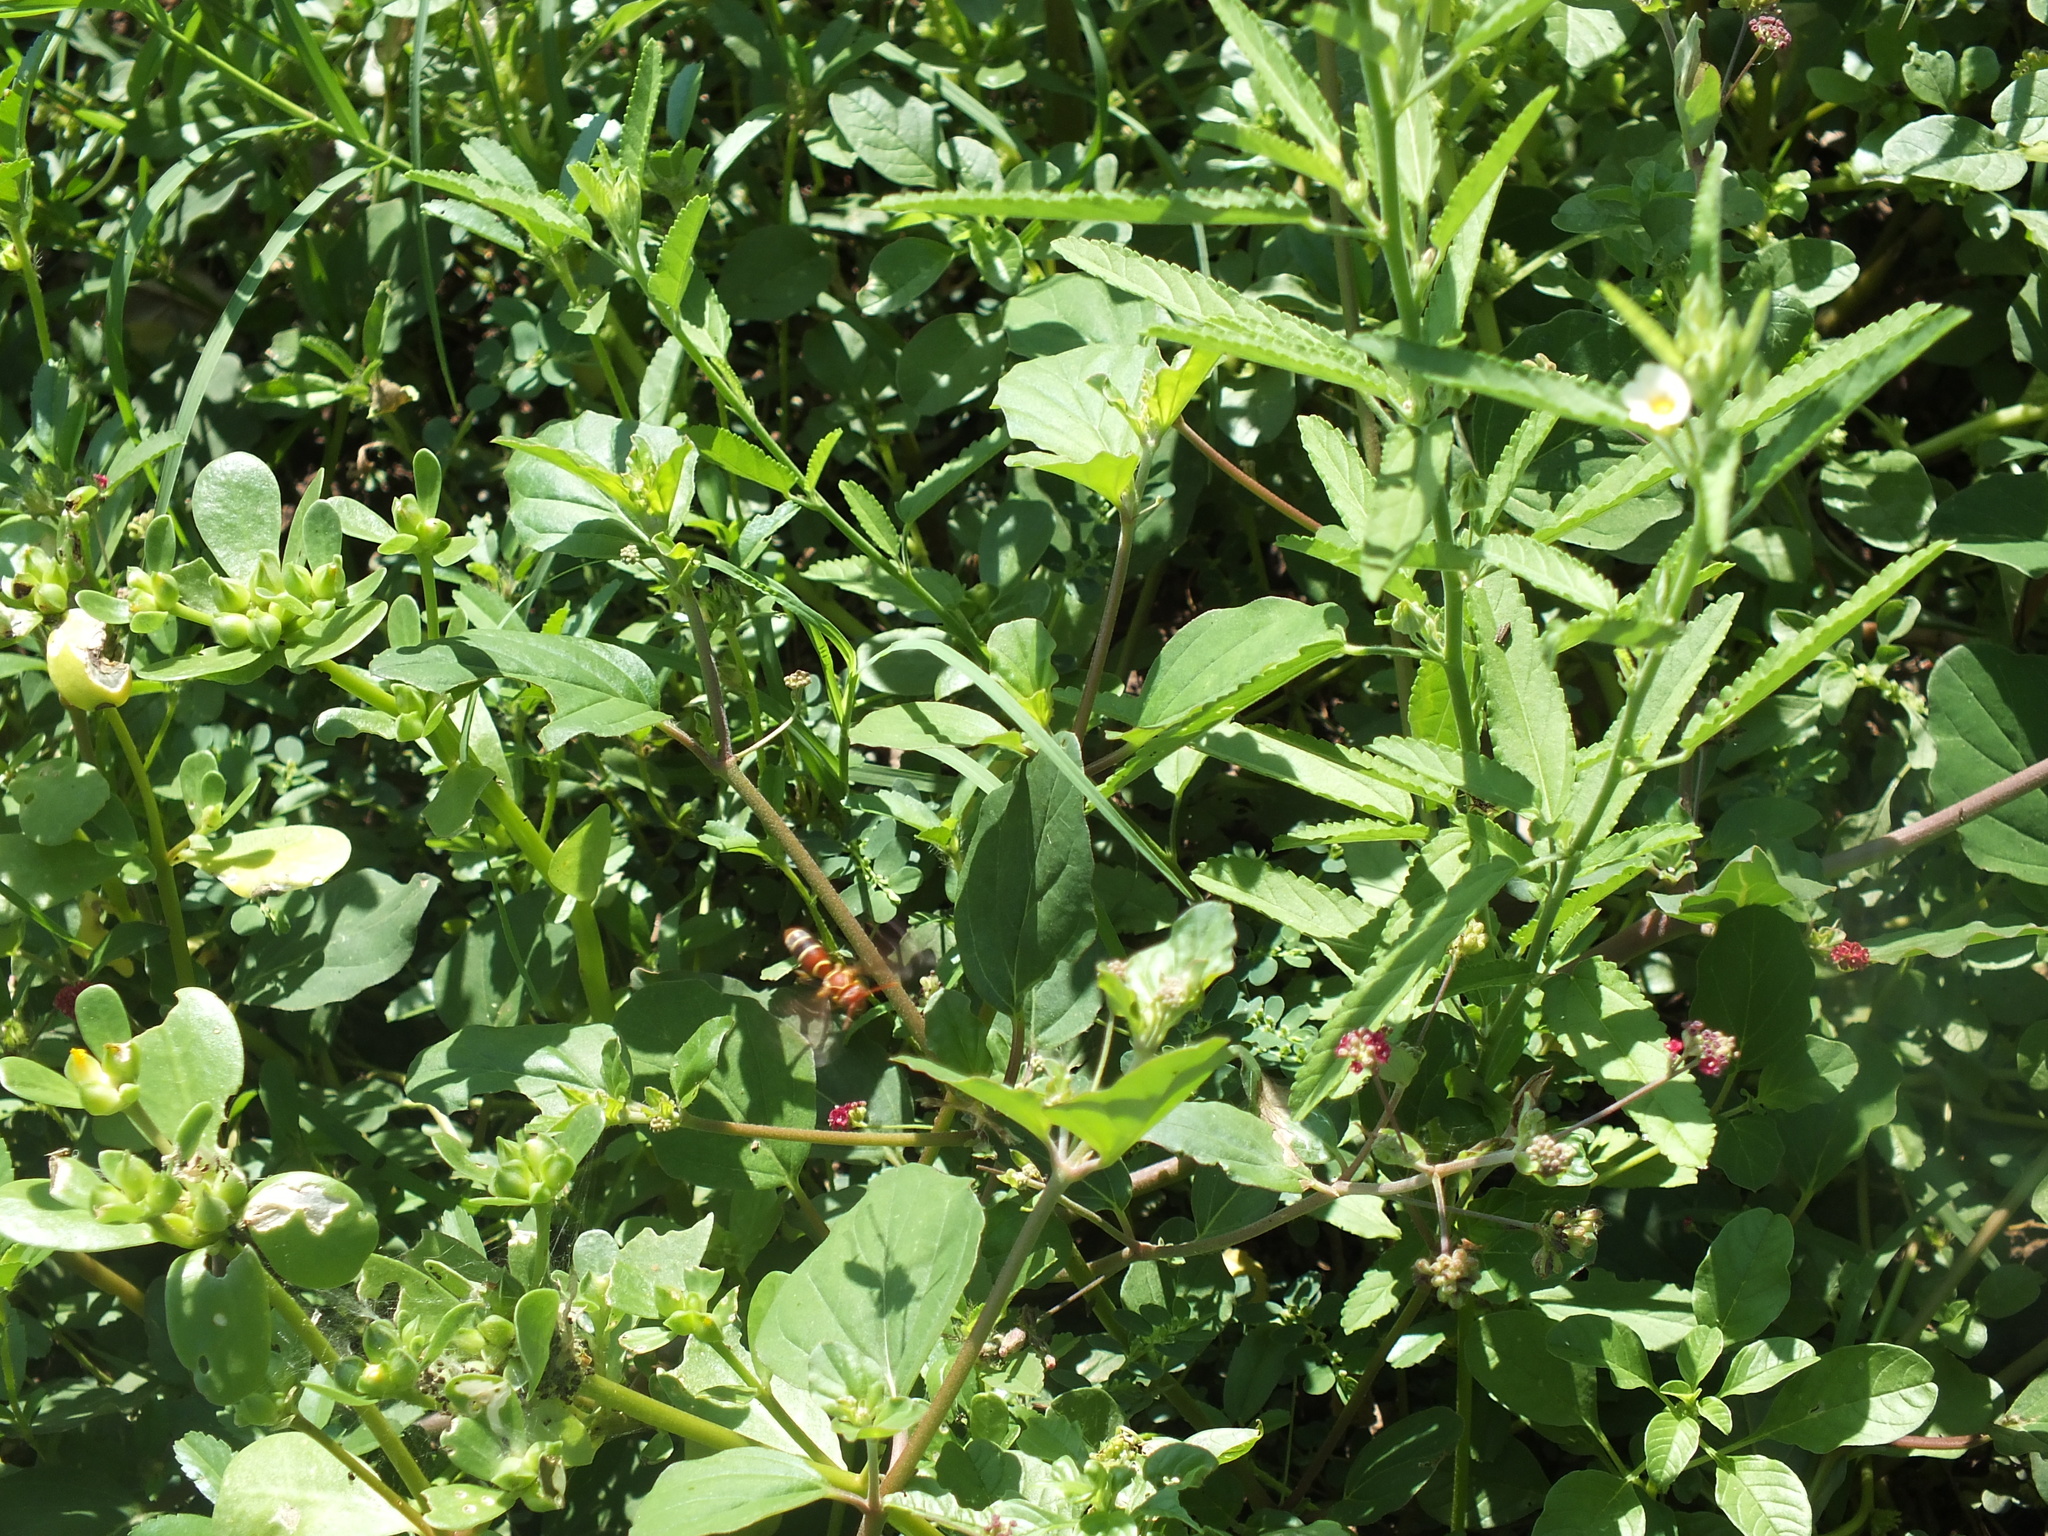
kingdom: Animalia
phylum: Arthropoda
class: Insecta
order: Hymenoptera
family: Eumenidae
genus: Polistes
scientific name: Polistes dorsalis
